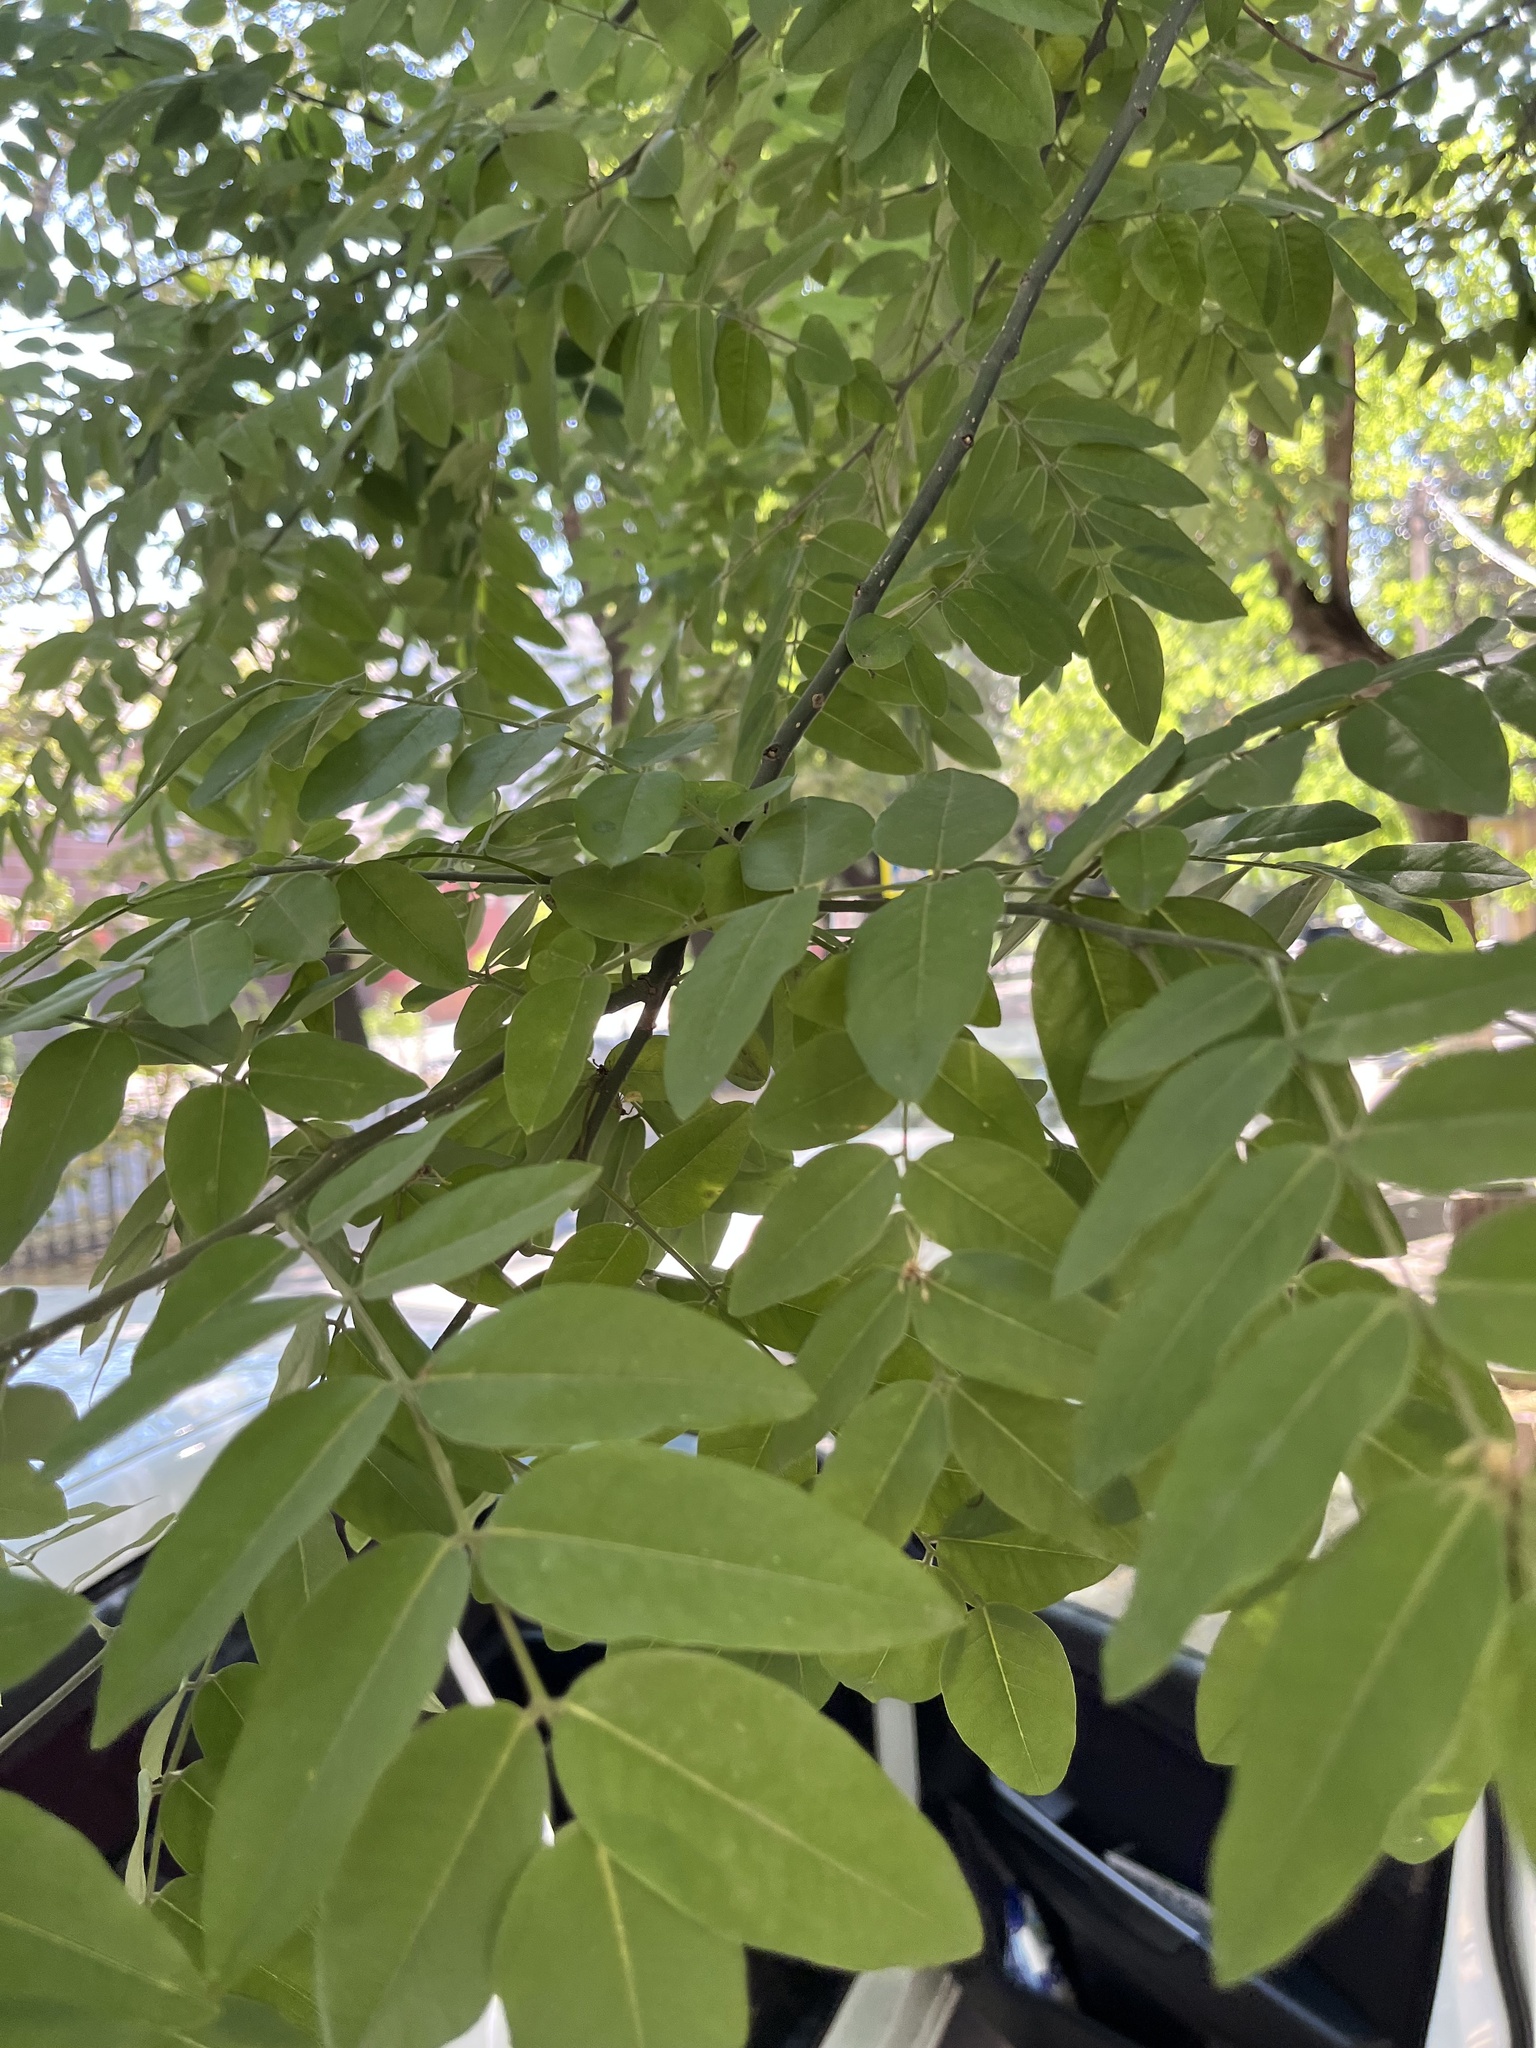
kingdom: Plantae
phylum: Tracheophyta
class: Magnoliopsida
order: Fabales
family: Fabaceae
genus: Styphnolobium
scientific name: Styphnolobium japonicum
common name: Chinese scholartree
